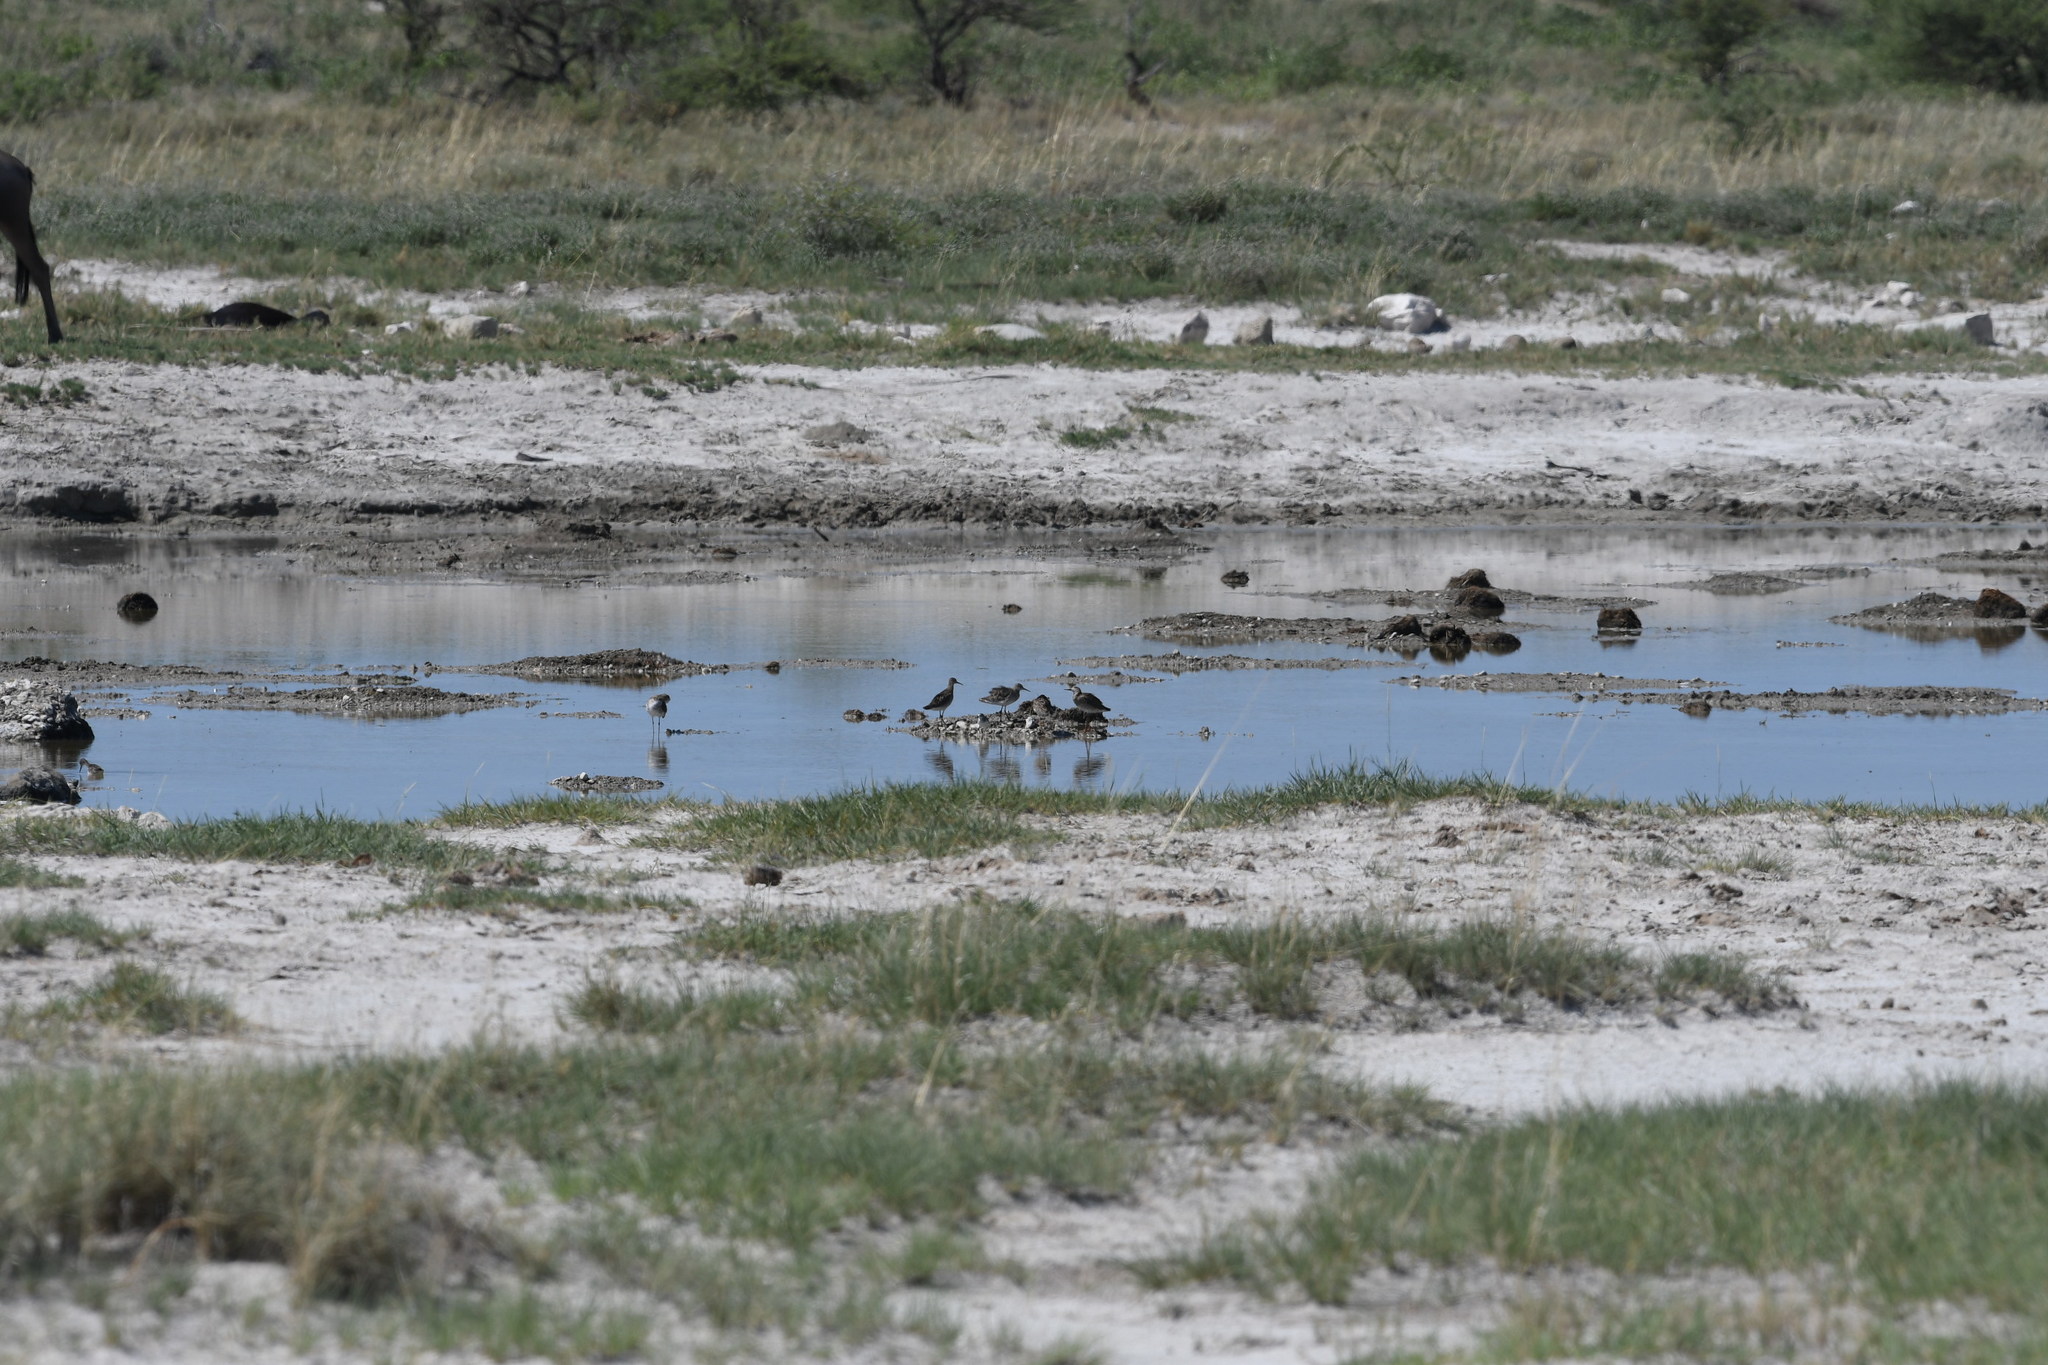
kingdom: Animalia
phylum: Chordata
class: Aves
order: Charadriiformes
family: Scolopacidae
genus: Calidris
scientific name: Calidris pugnax
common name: Ruff
